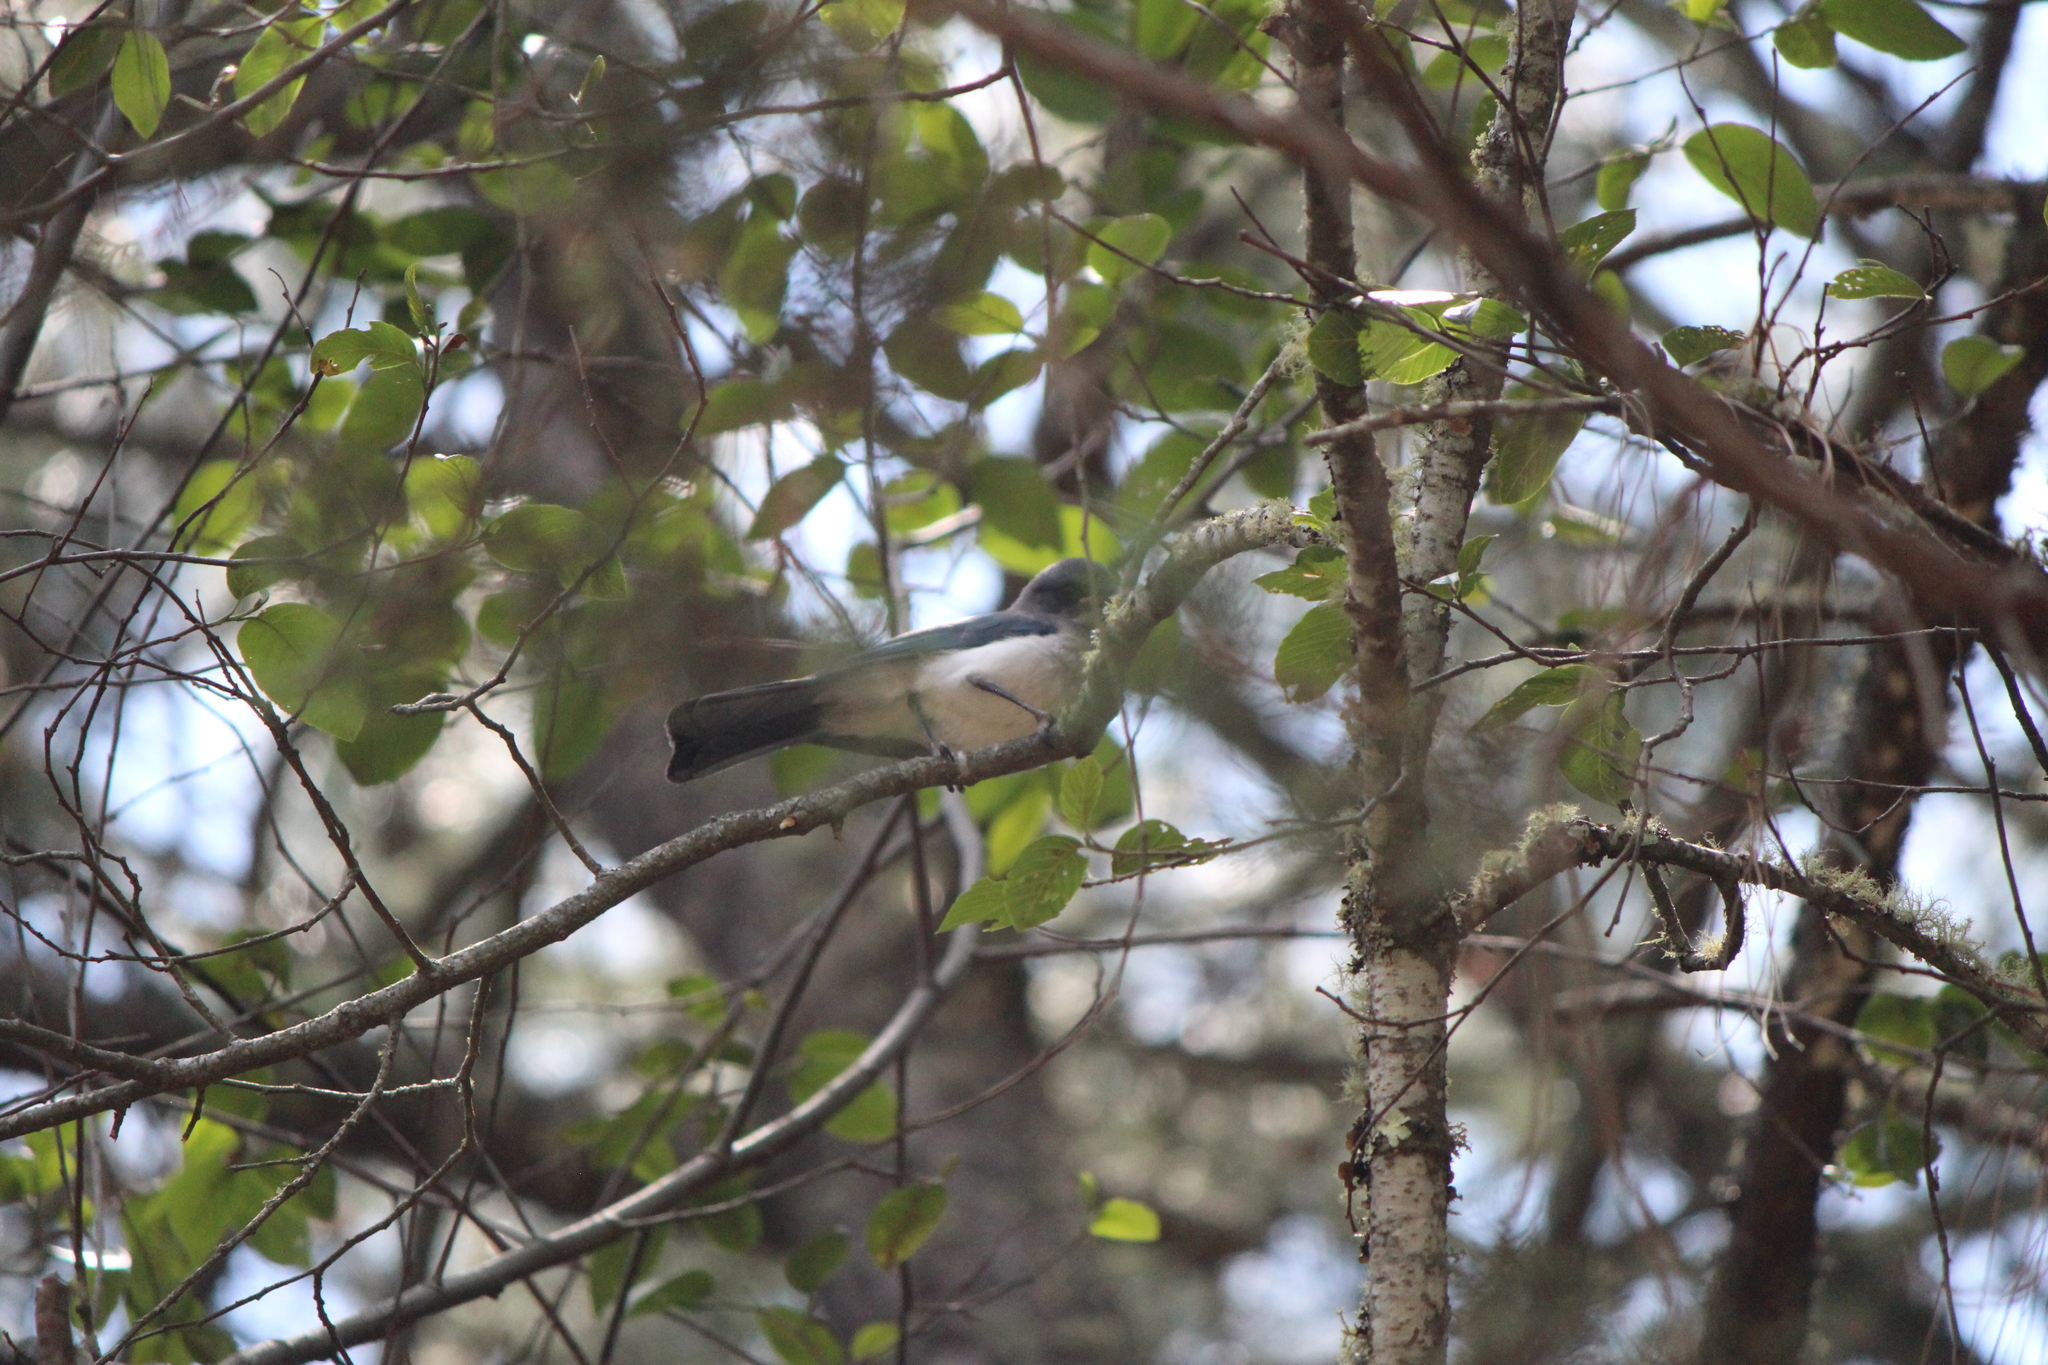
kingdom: Animalia
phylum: Chordata
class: Aves
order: Passeriformes
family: Corvidae
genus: Aphelocoma
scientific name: Aphelocoma wollweberi
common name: Mexican jay
